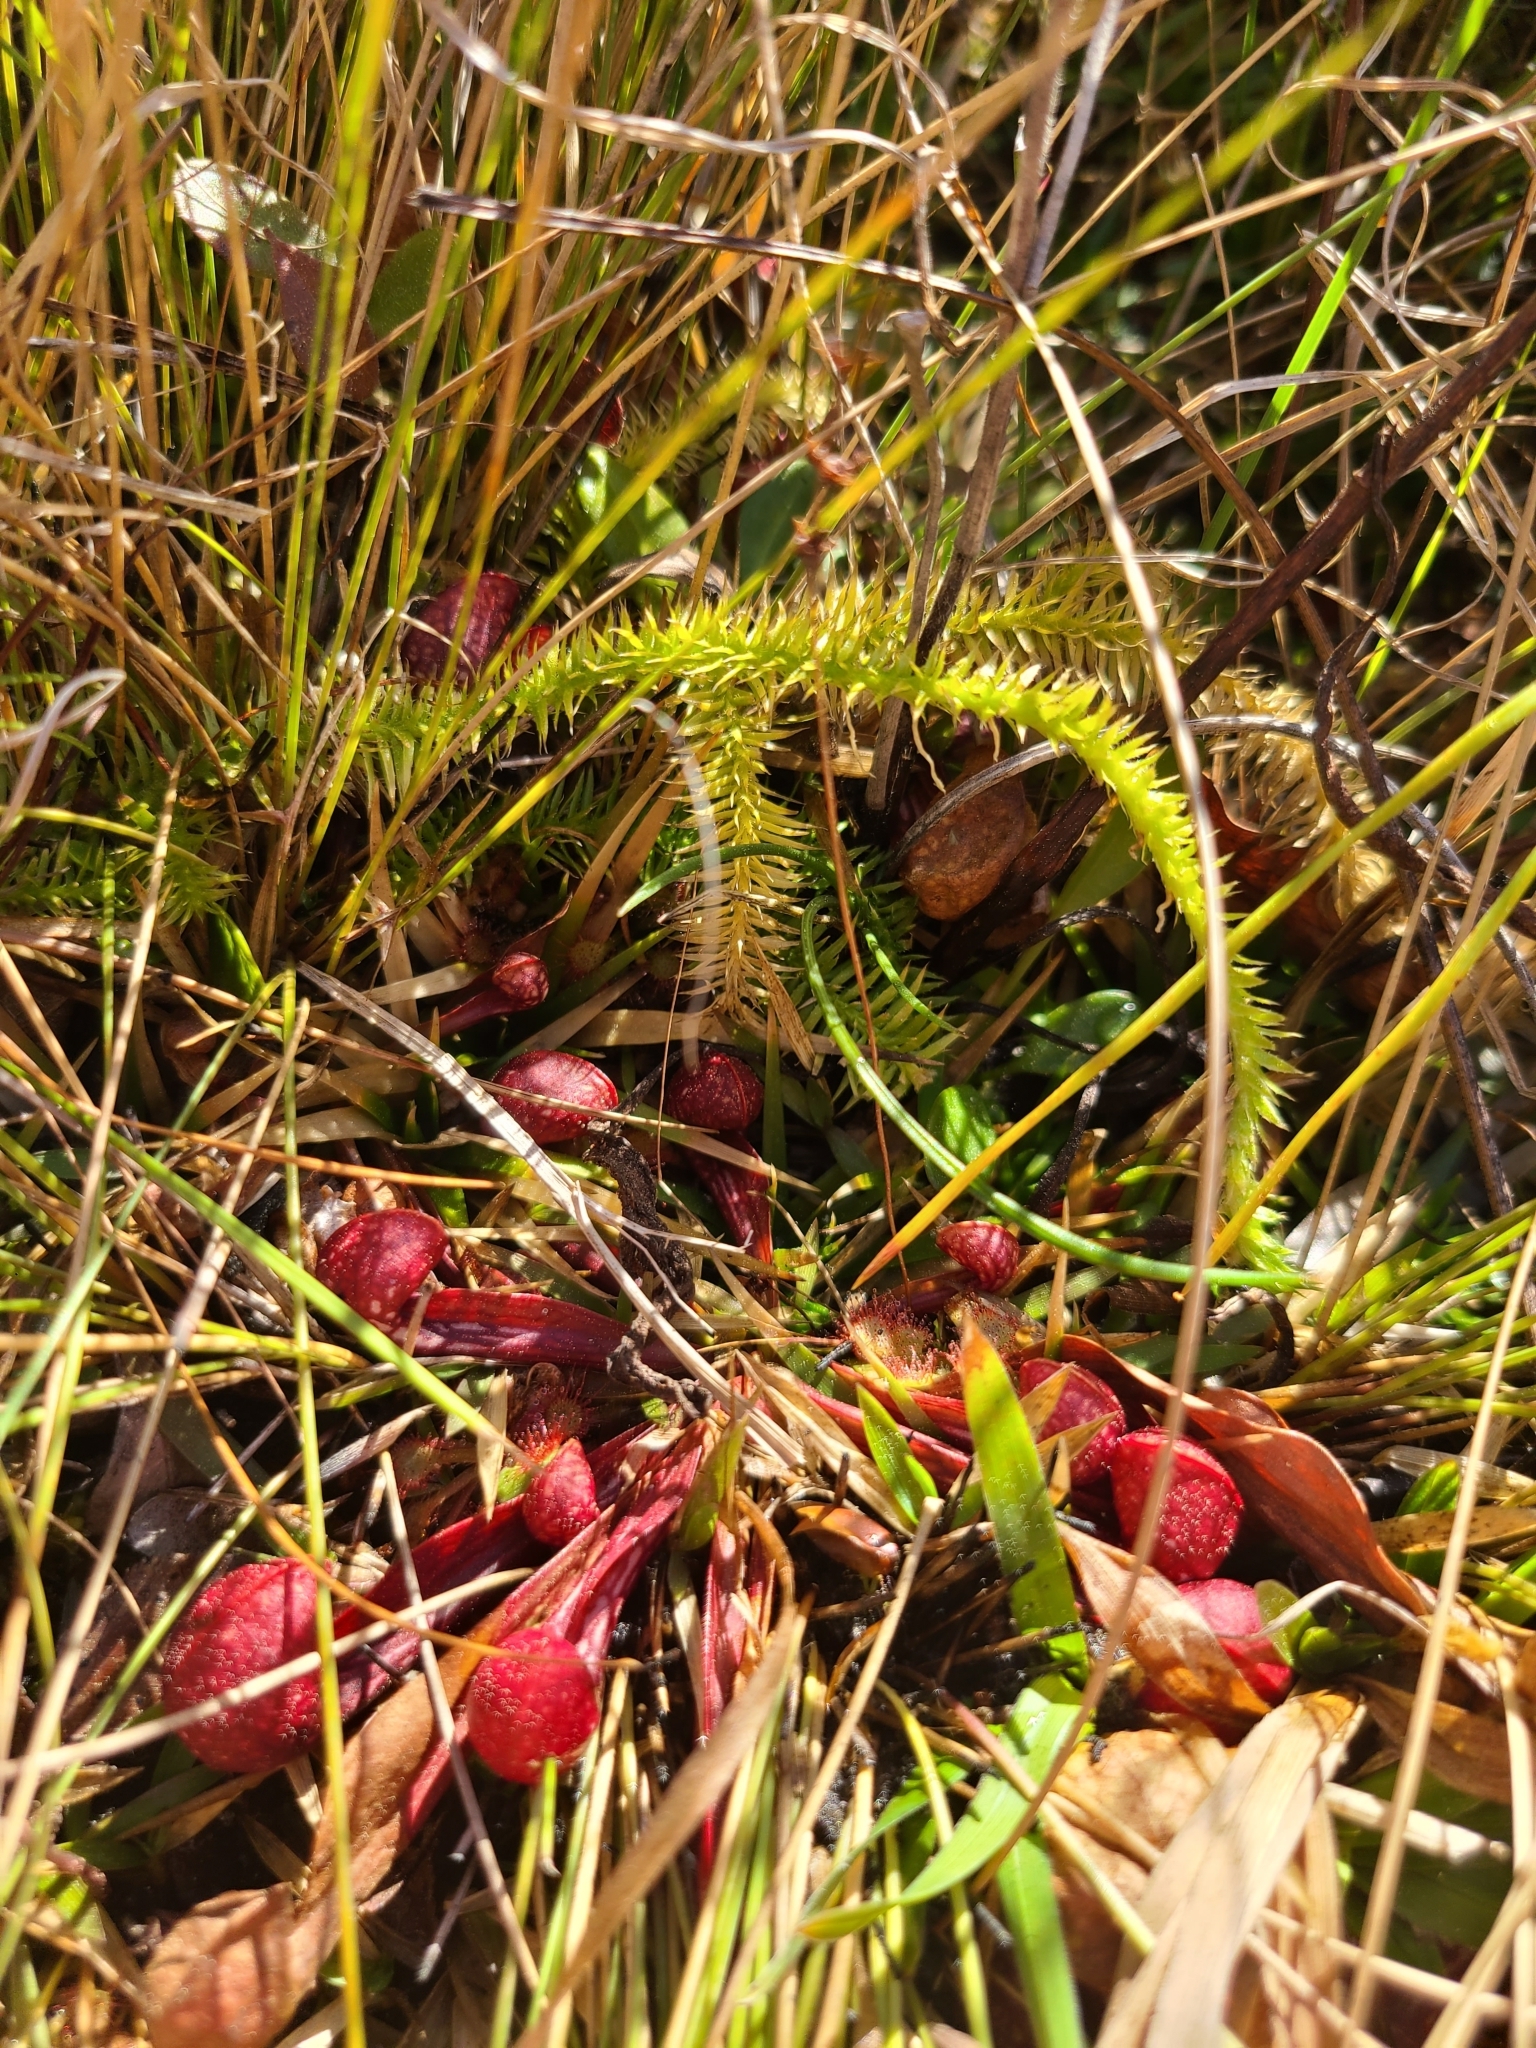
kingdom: Plantae
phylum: Tracheophyta
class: Magnoliopsida
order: Ericales
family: Sarraceniaceae
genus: Sarracenia
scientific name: Sarracenia psittacina
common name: Parrot pitcherplant
